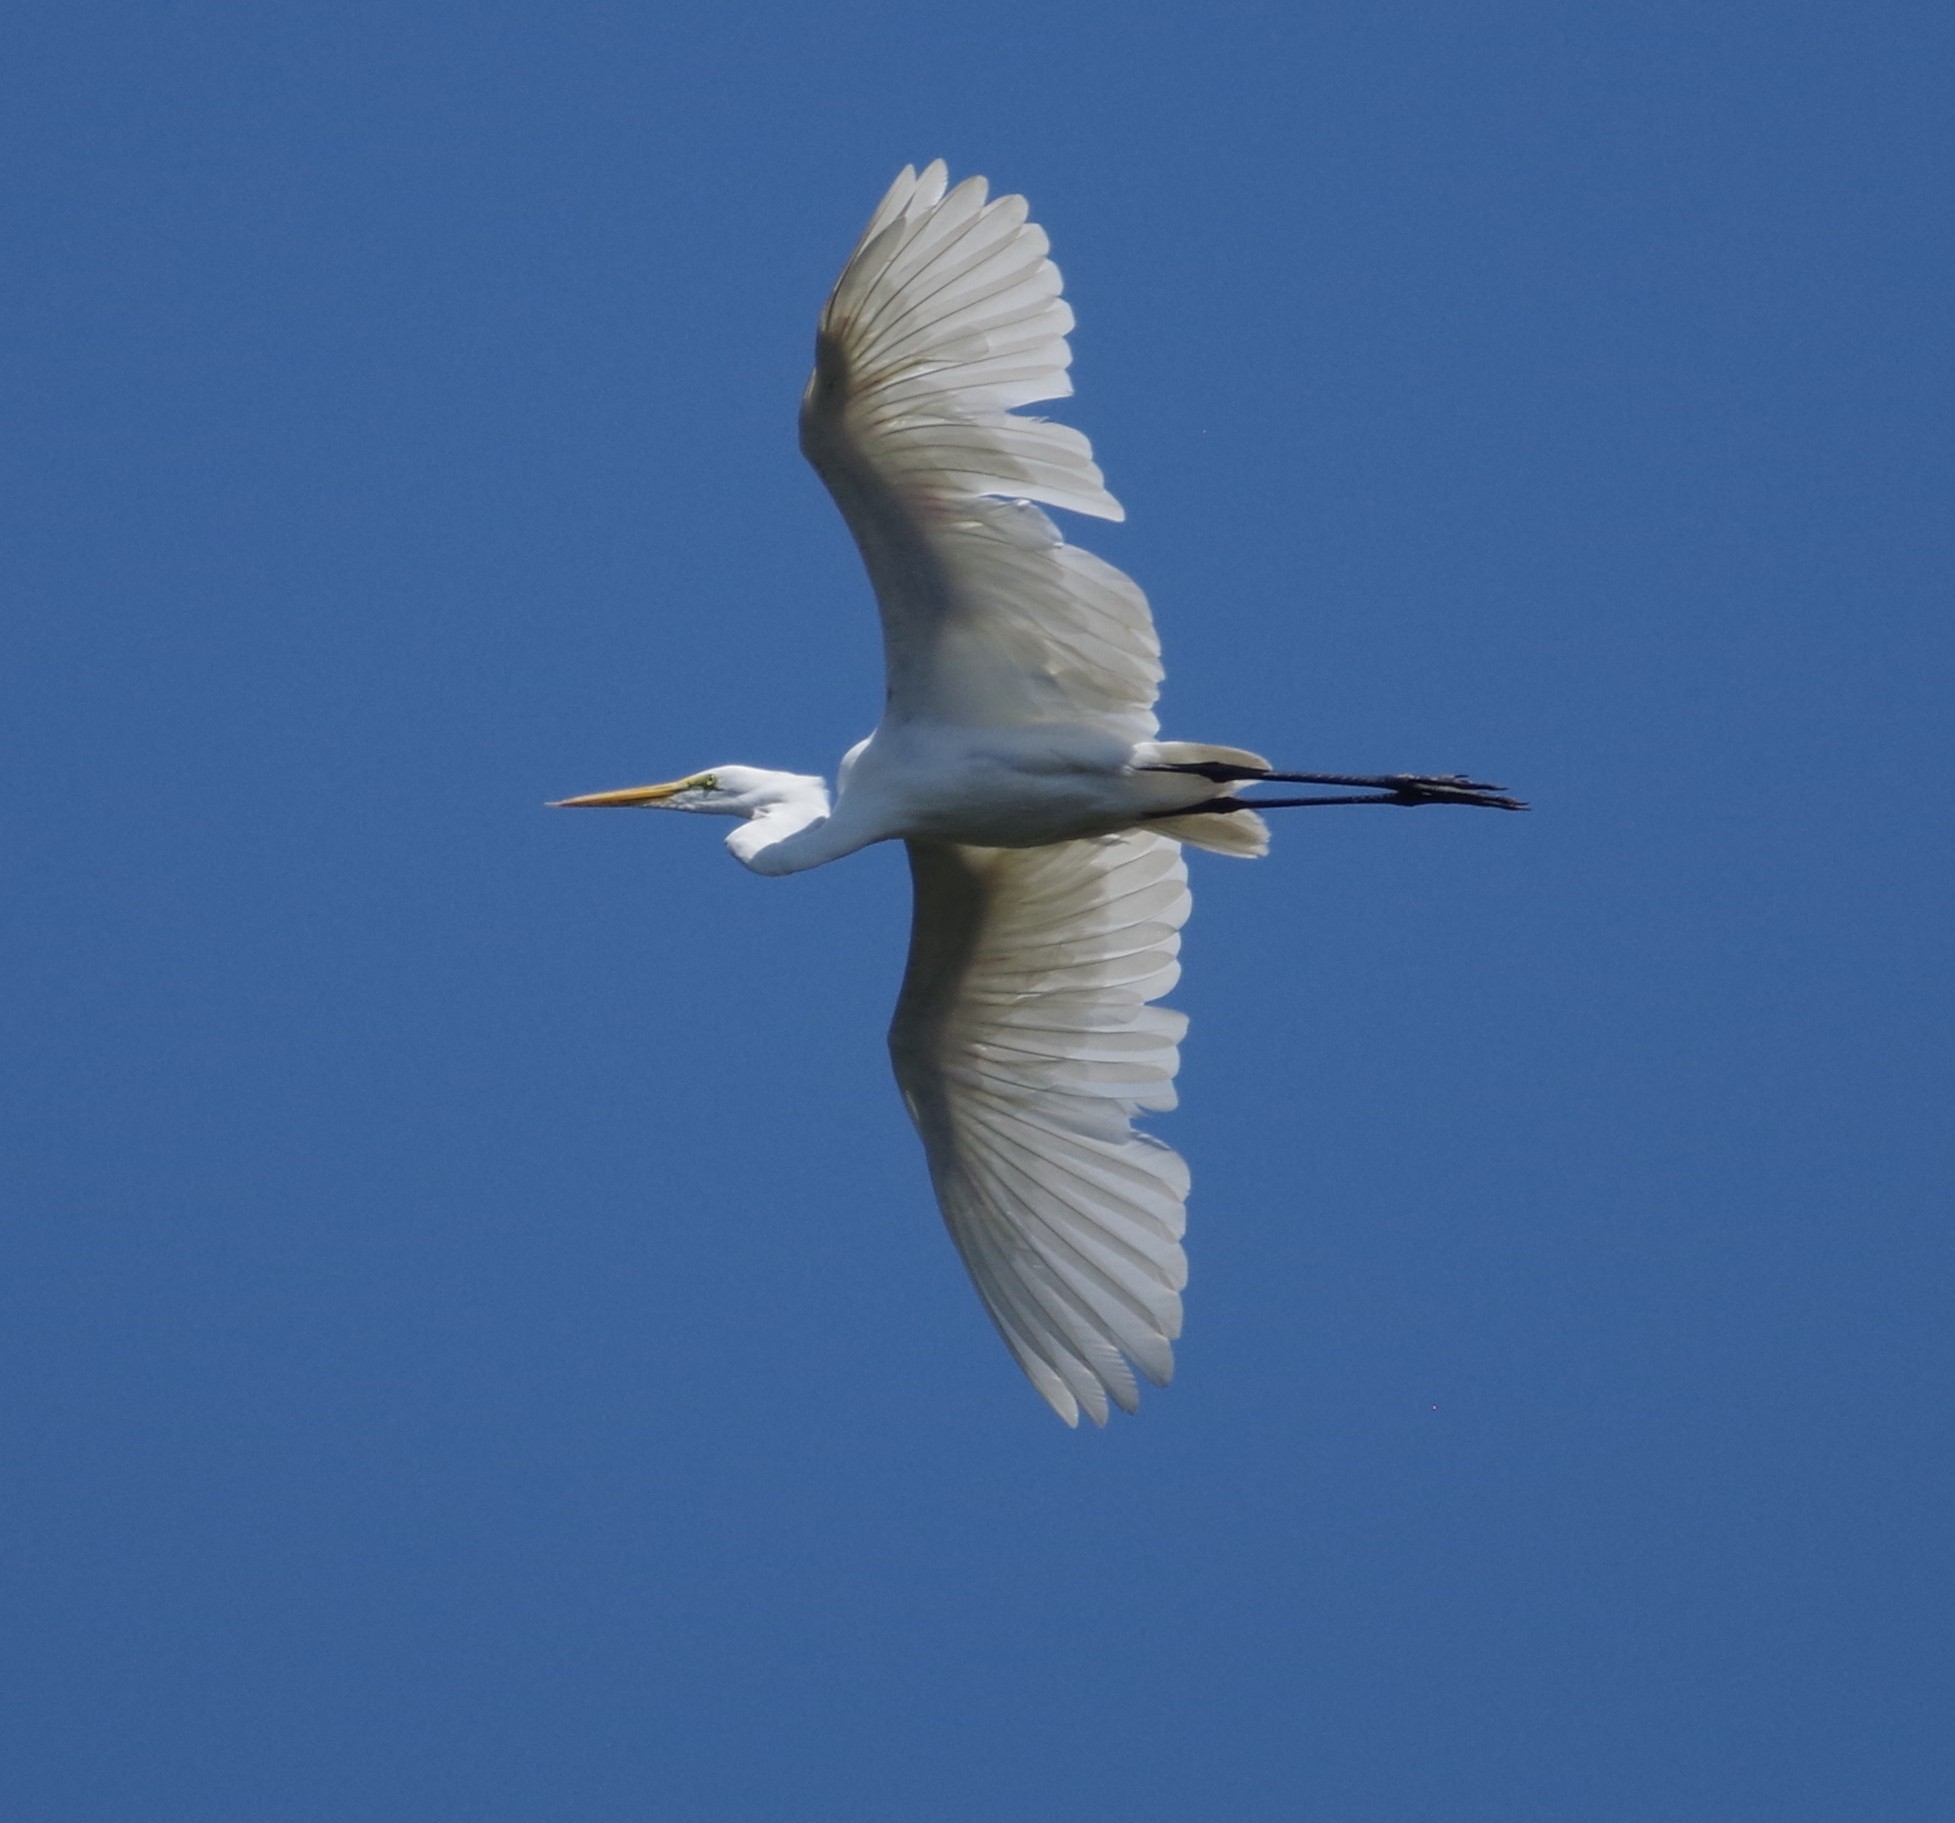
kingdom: Animalia
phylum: Chordata
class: Aves
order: Pelecaniformes
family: Ardeidae
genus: Ardea
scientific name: Ardea alba
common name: Great egret
